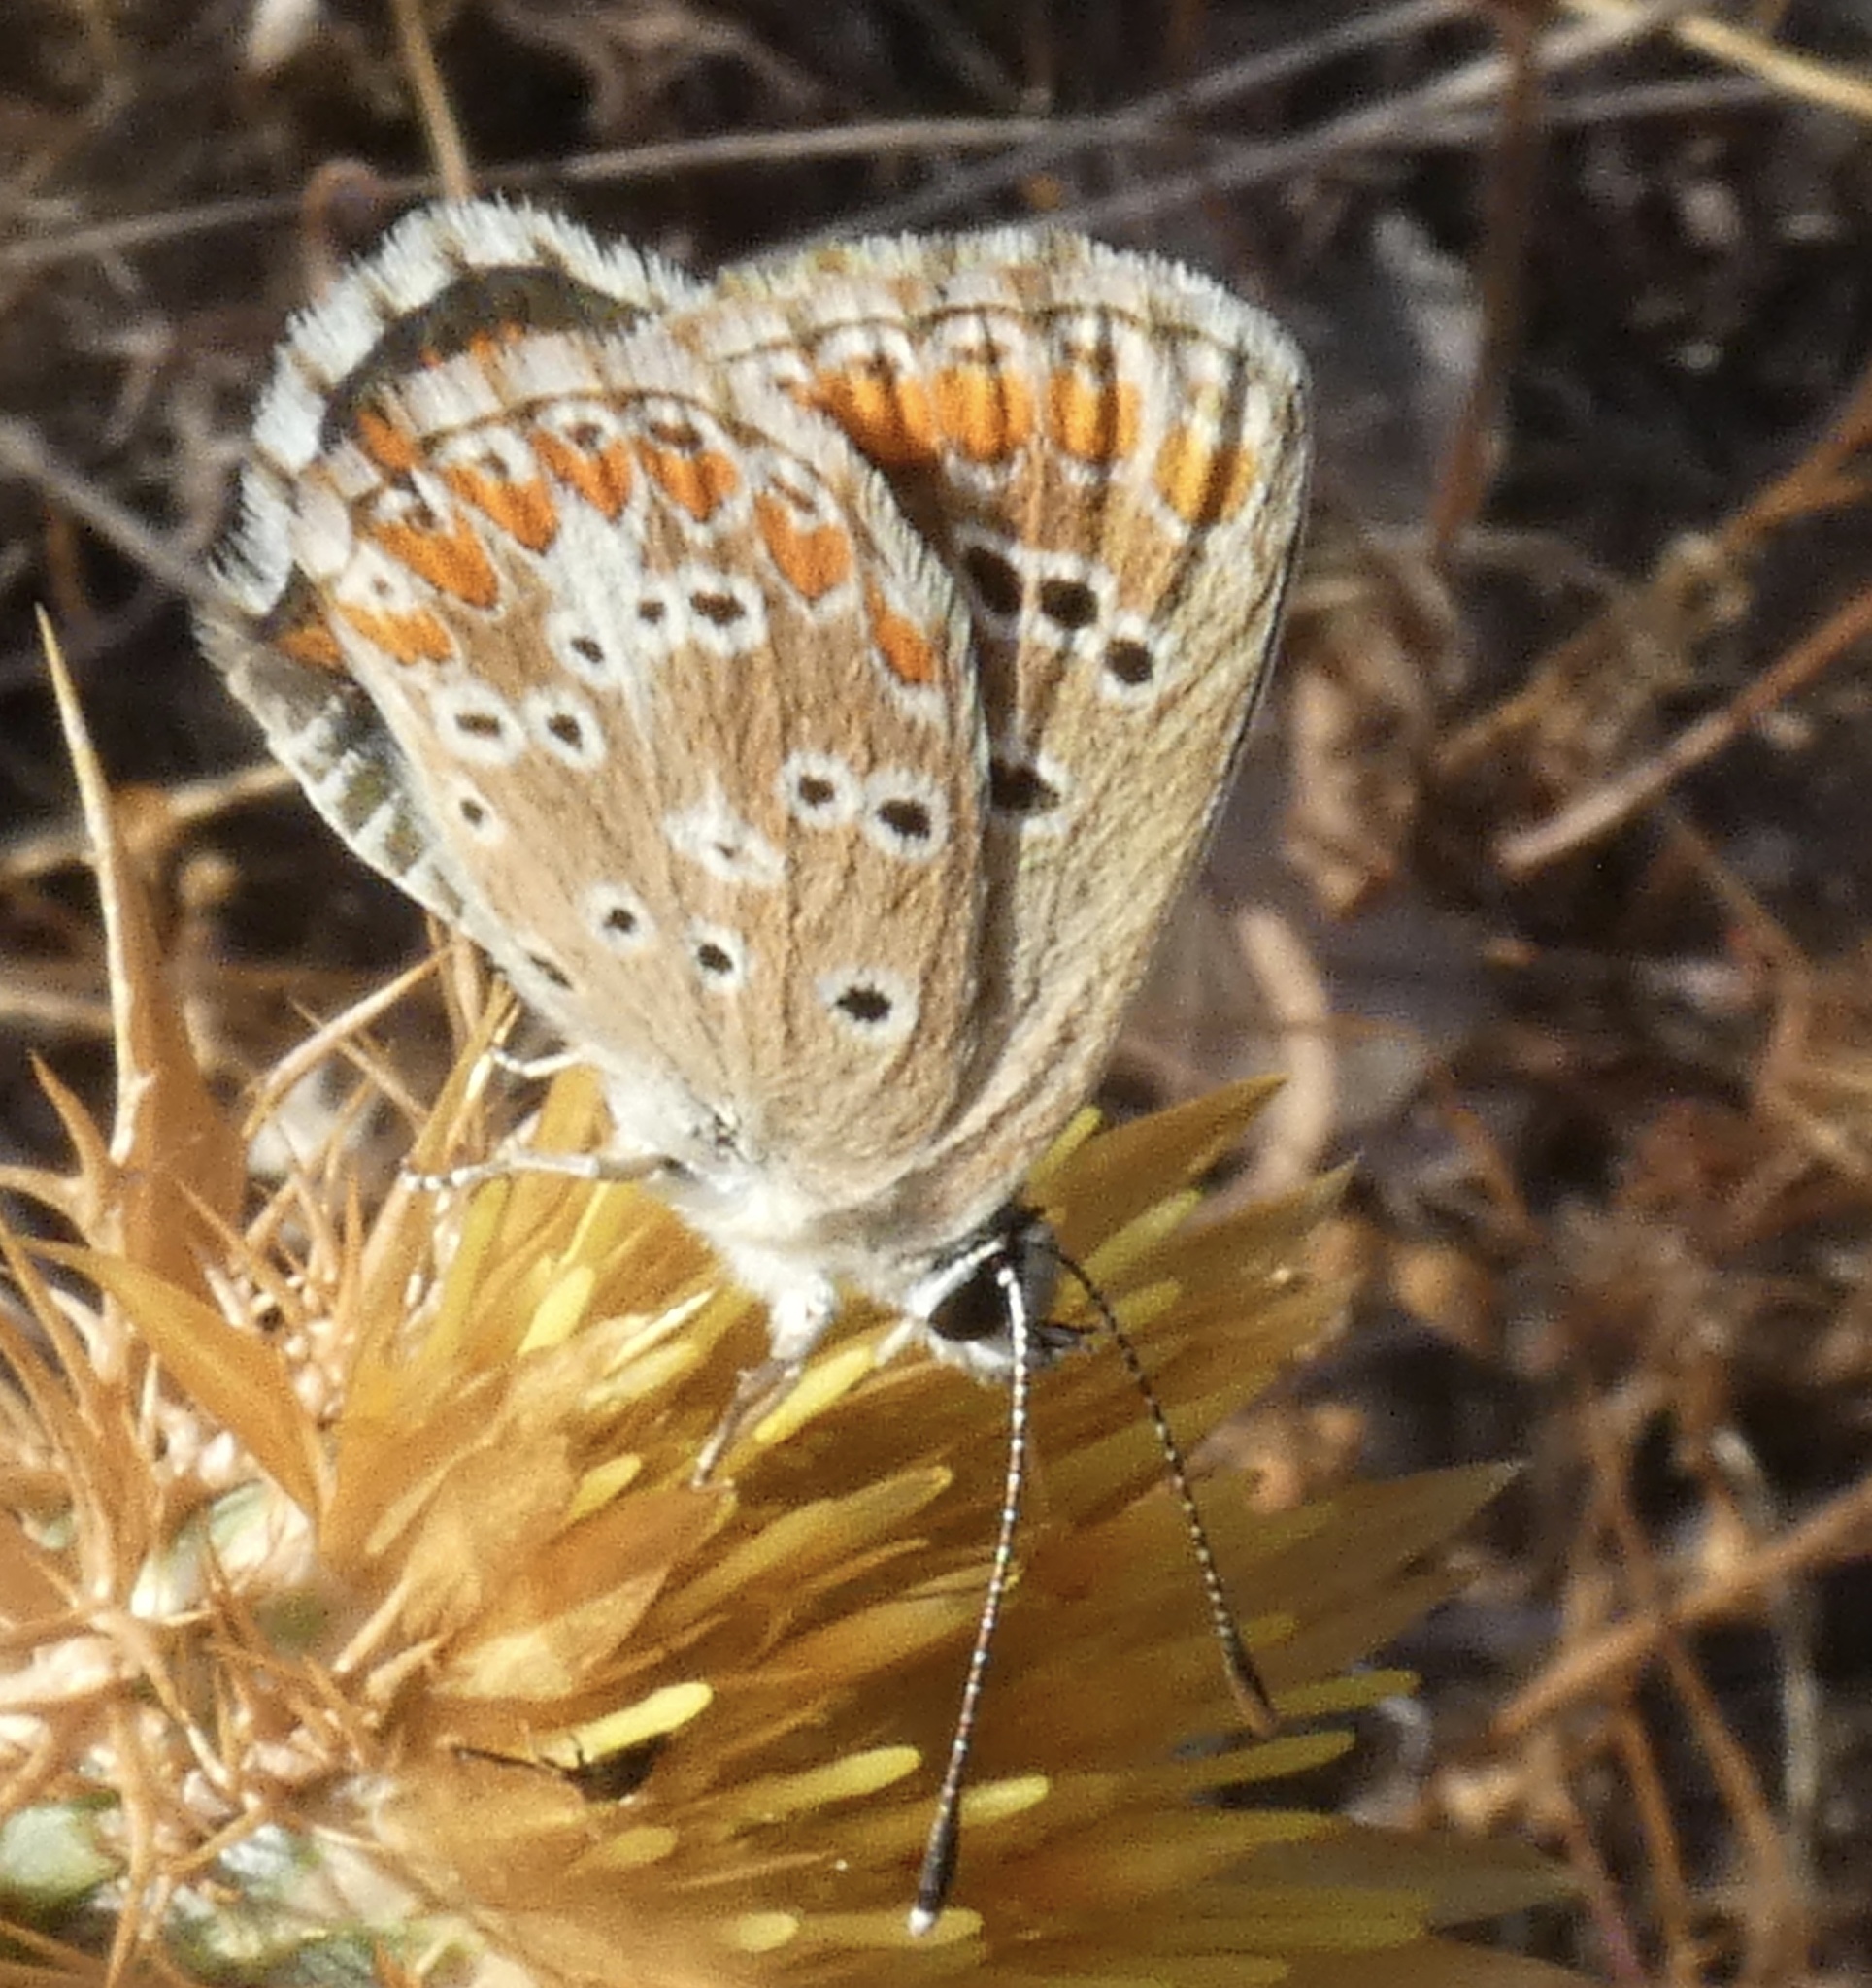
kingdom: Animalia
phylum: Arthropoda
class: Insecta
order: Lepidoptera
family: Lycaenidae
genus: Aricia
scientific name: Aricia cramera
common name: Eschscholtz´s brown  argus
